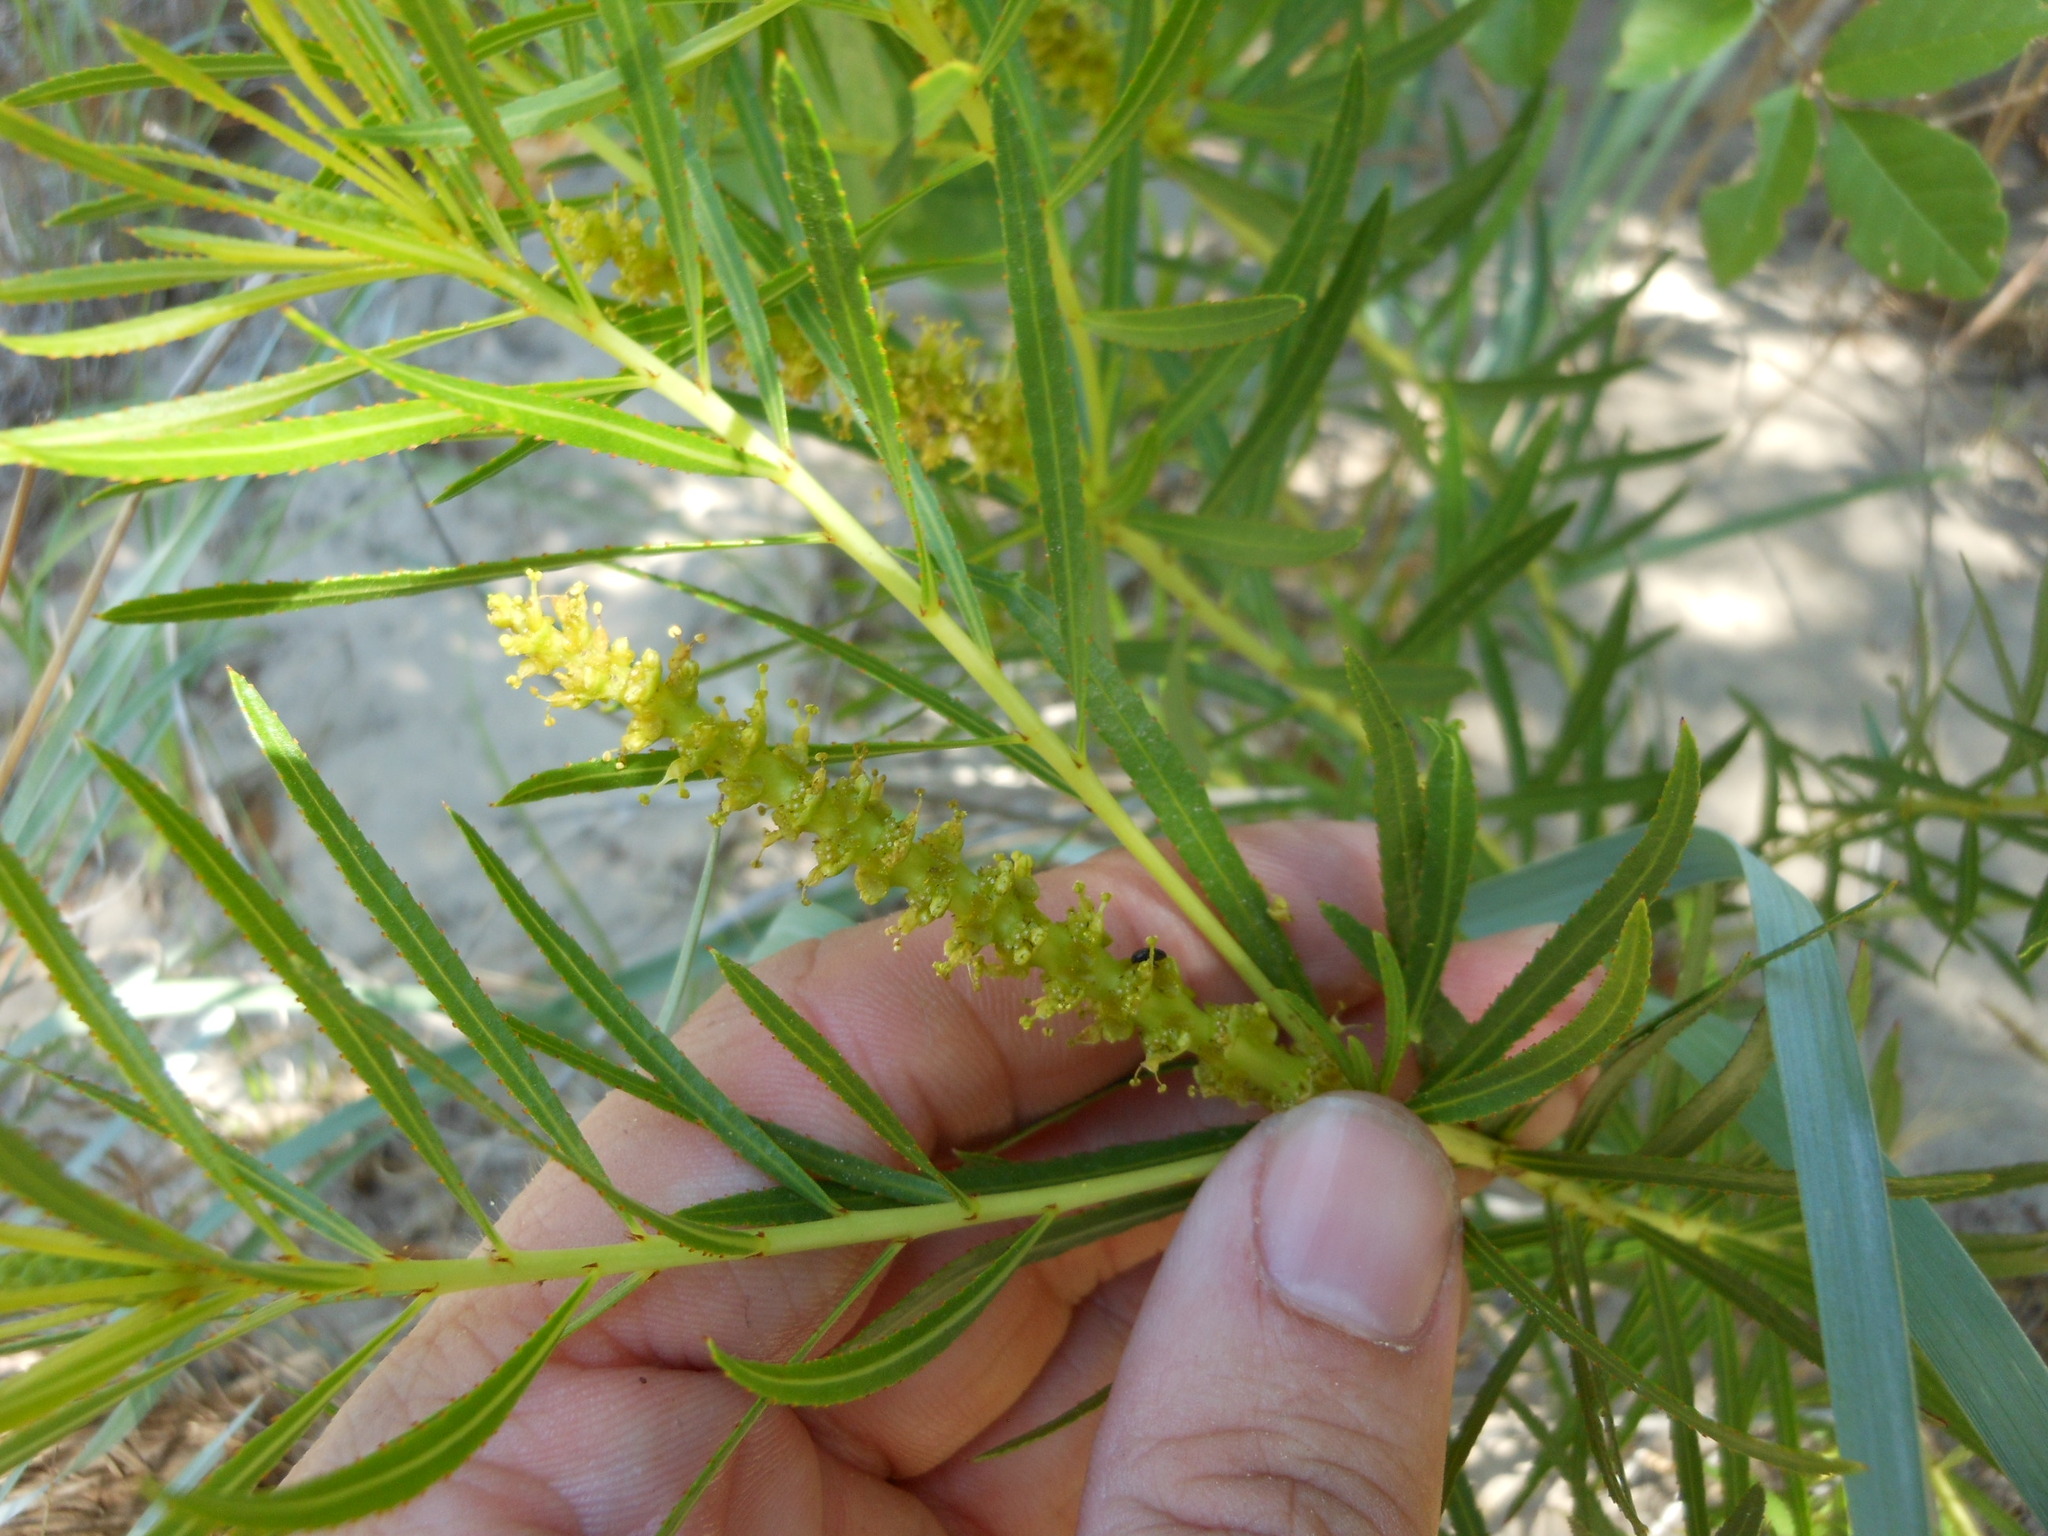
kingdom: Plantae
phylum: Tracheophyta
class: Magnoliopsida
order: Malpighiales
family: Euphorbiaceae
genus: Stillingia
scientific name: Stillingia texana
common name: Texas stillingia
